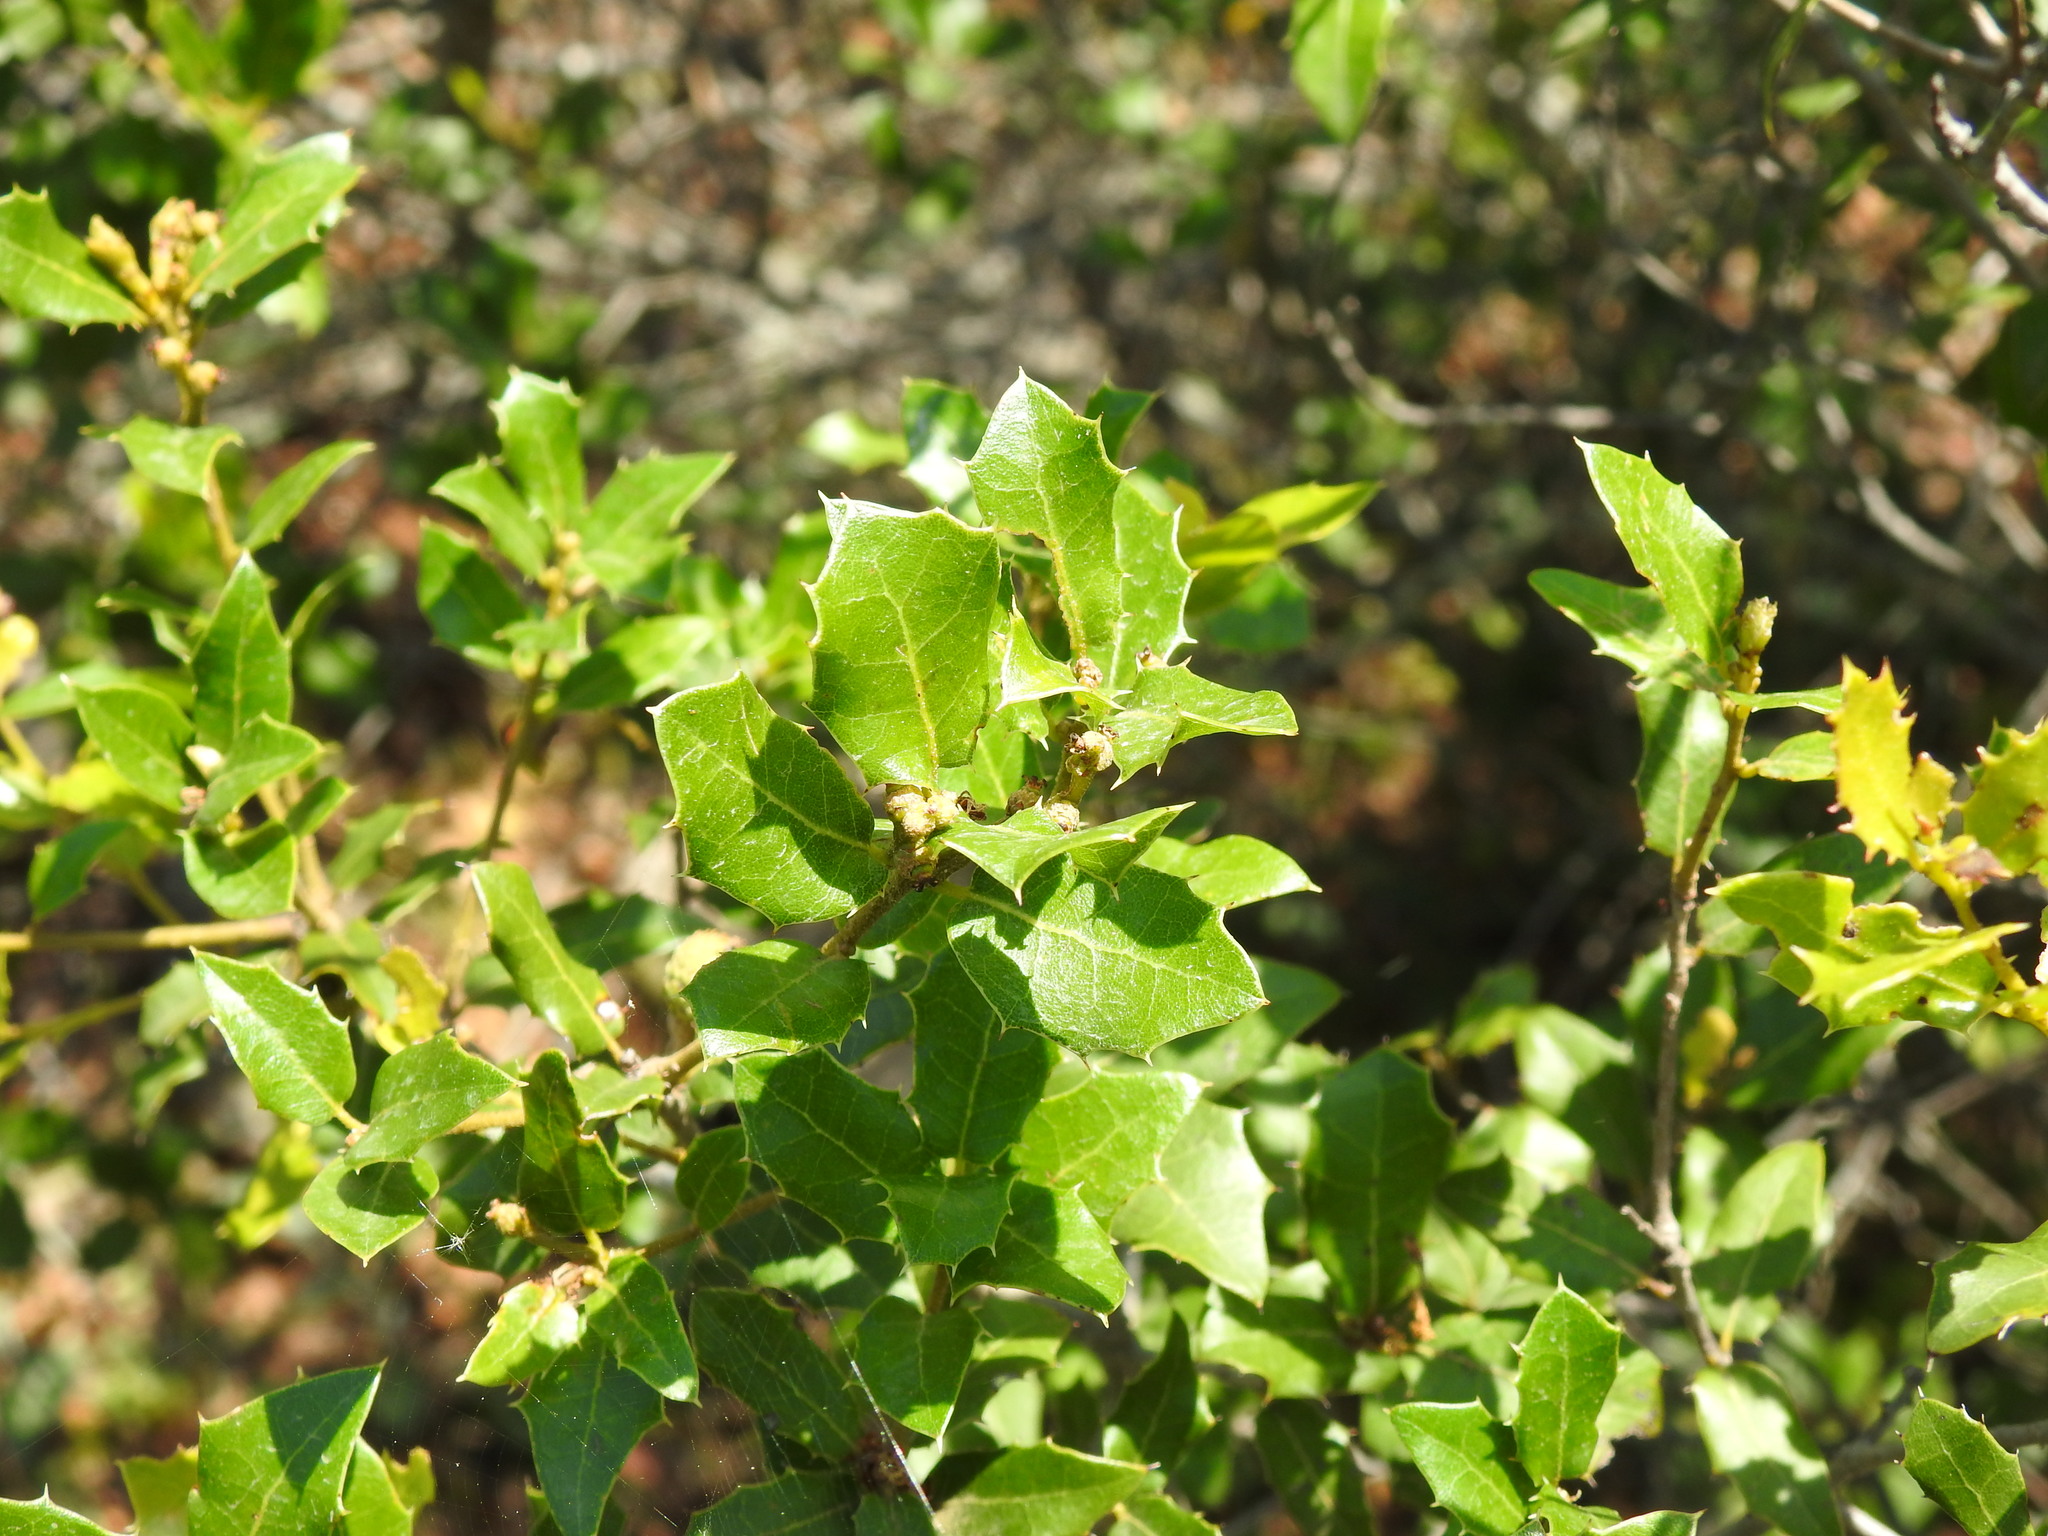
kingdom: Plantae
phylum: Tracheophyta
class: Magnoliopsida
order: Fagales
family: Fagaceae
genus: Quercus
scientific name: Quercus coccifera
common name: Kermes oak
